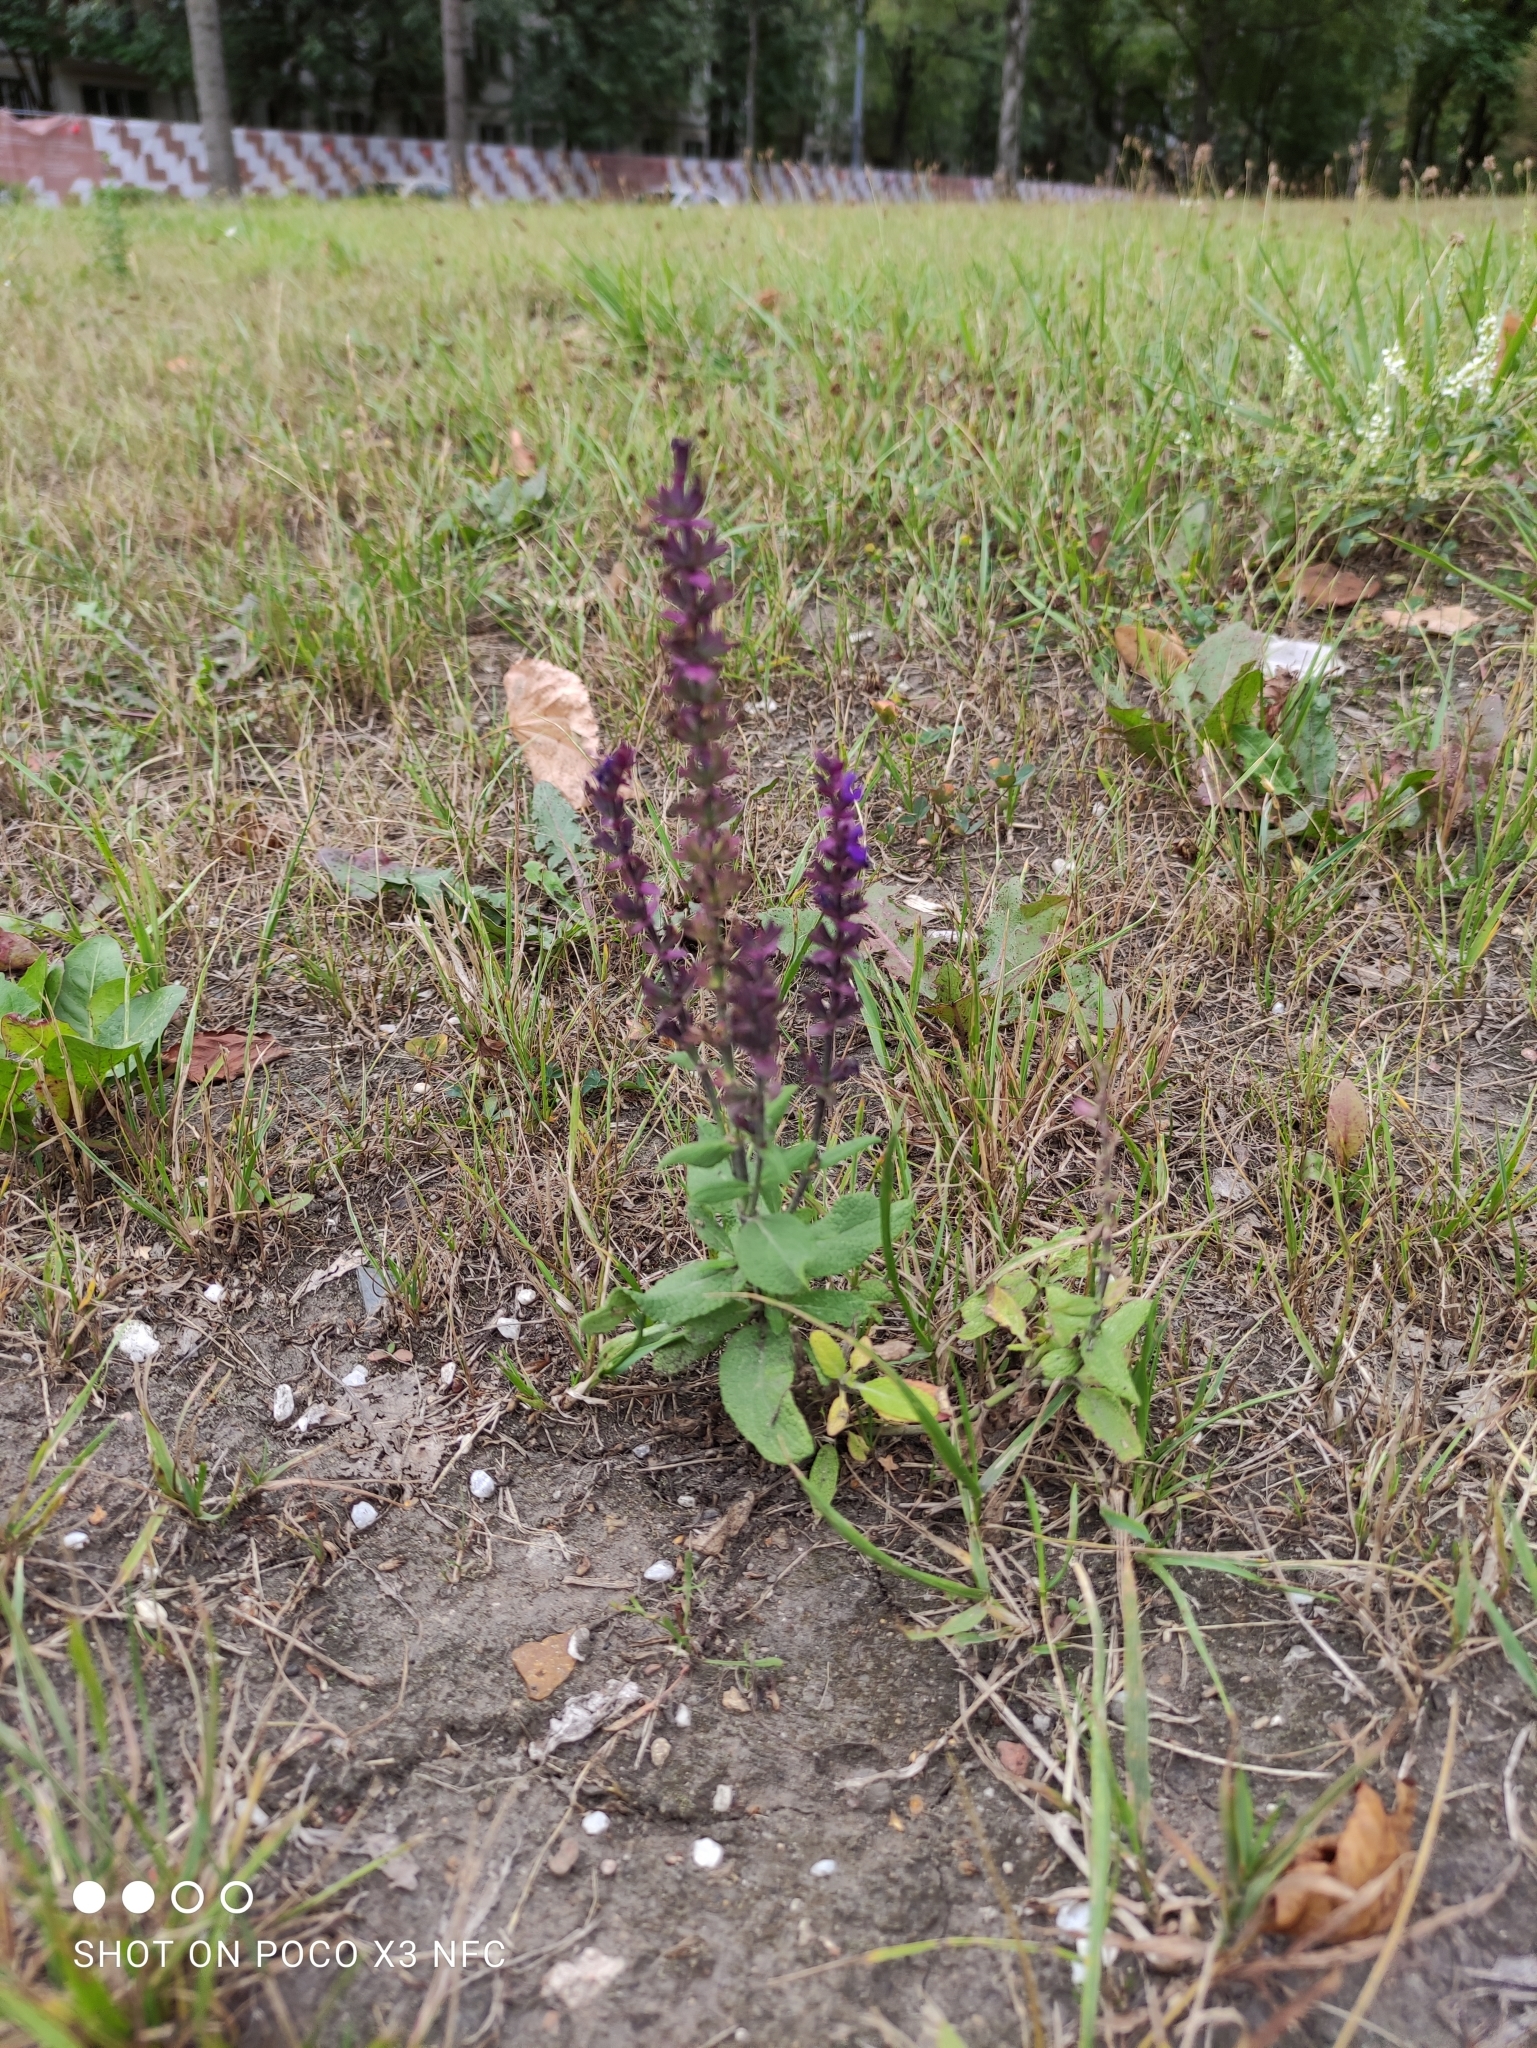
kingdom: Plantae
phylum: Tracheophyta
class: Magnoliopsida
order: Lamiales
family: Lamiaceae
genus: Salvia
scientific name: Salvia nemorosa
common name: Balkan clary
